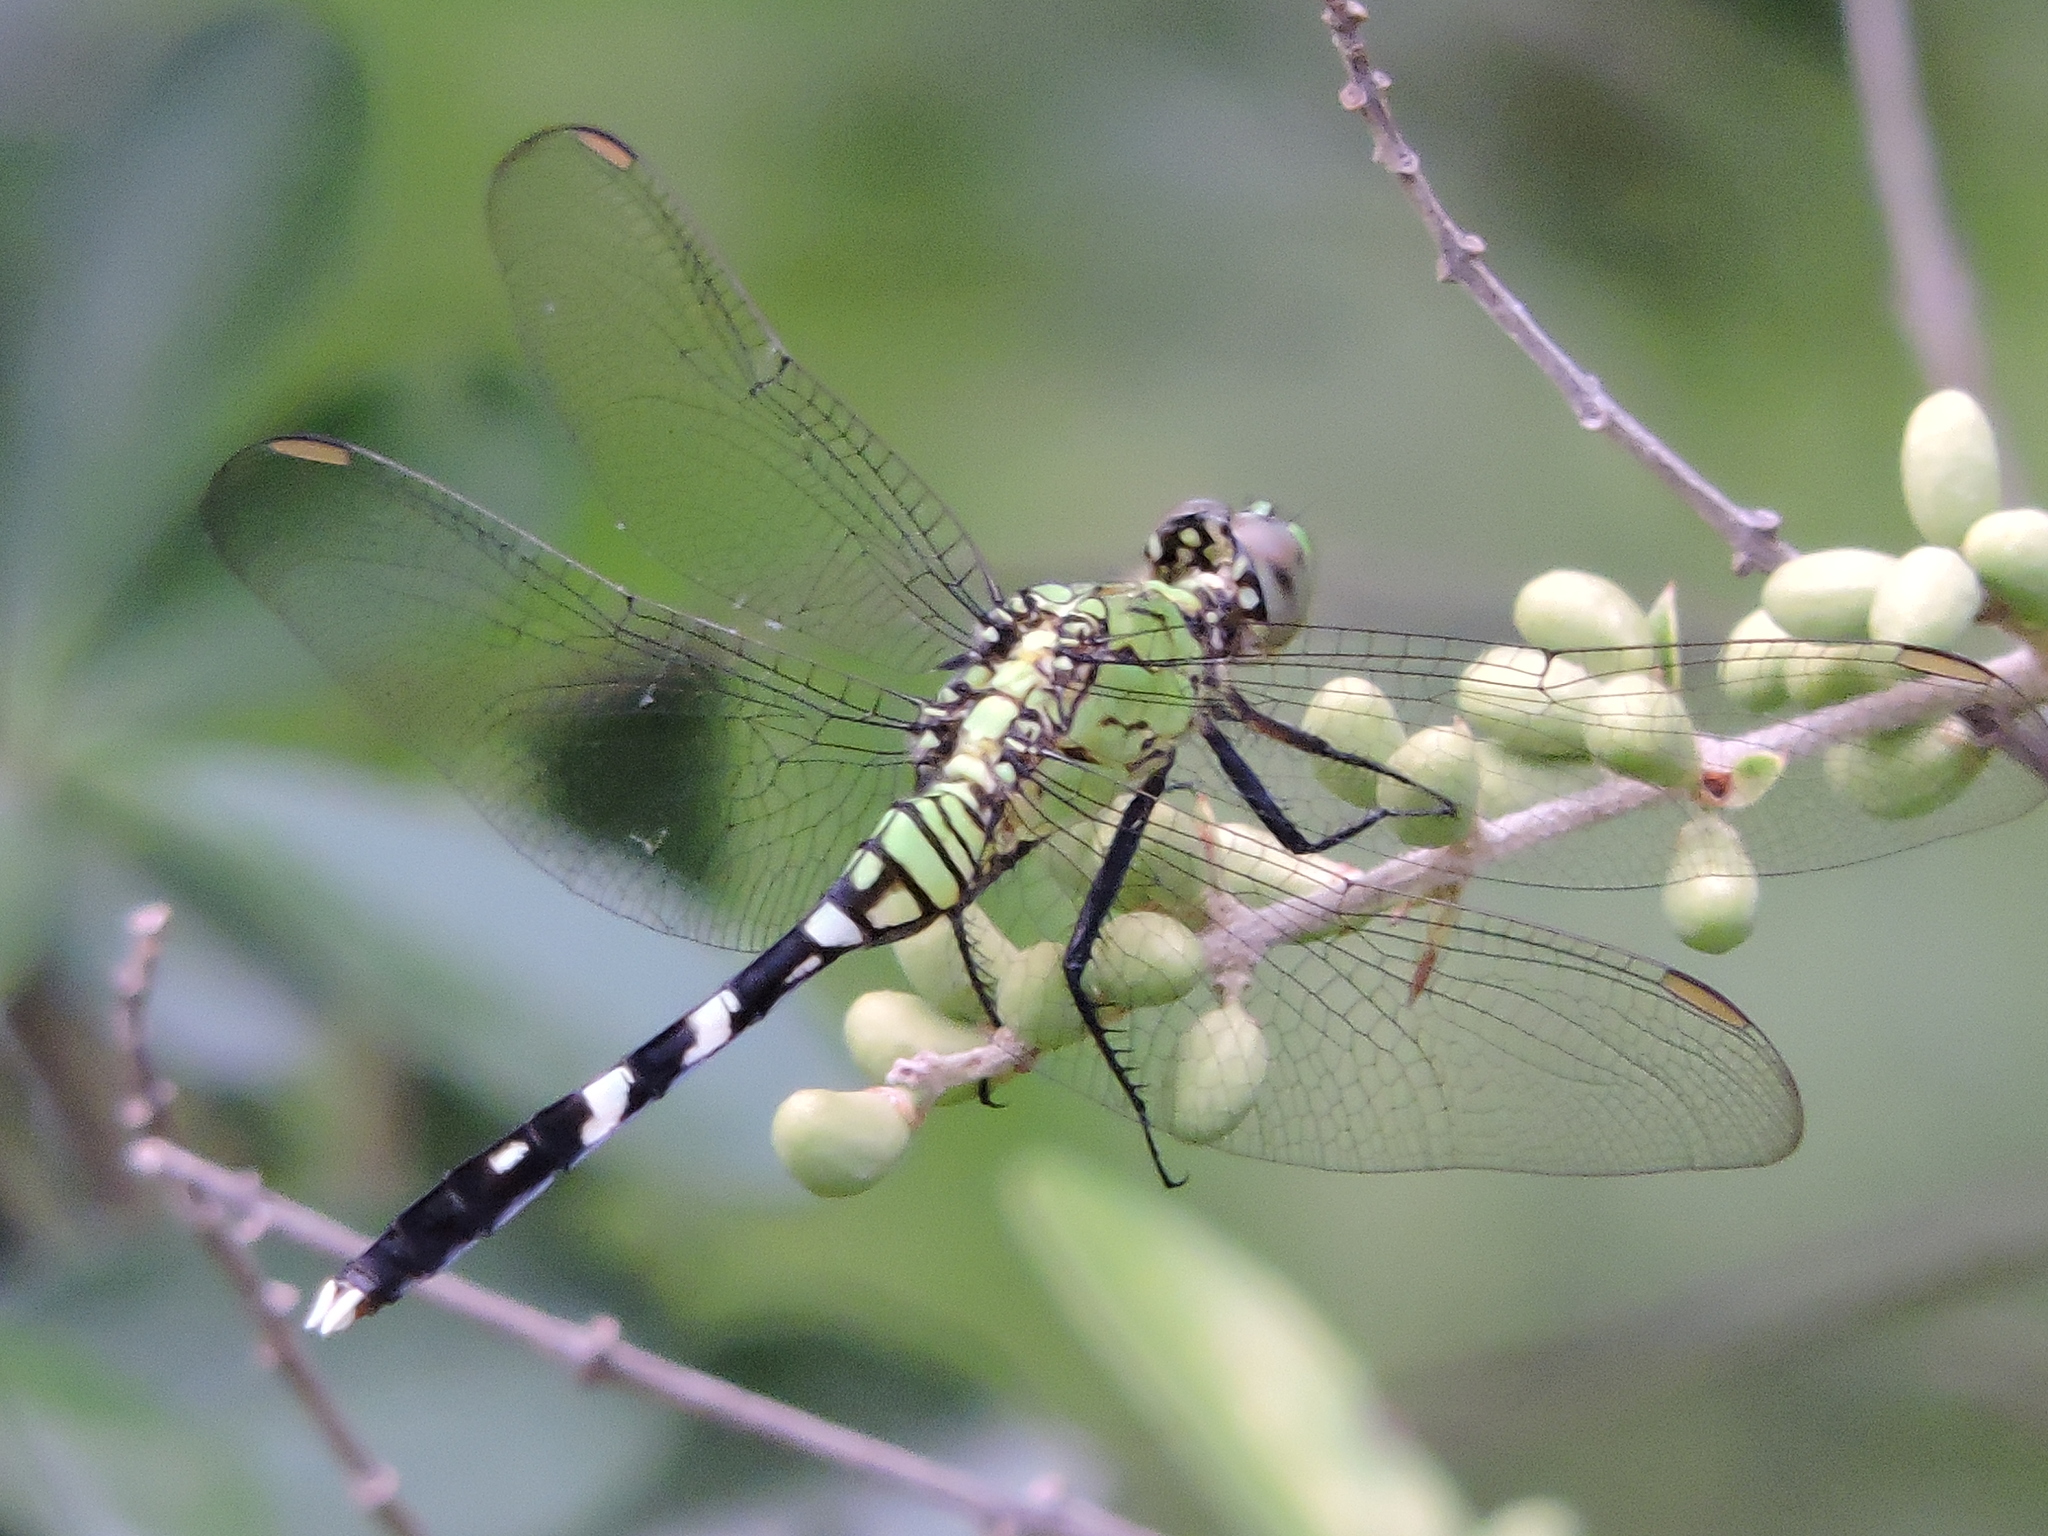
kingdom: Animalia
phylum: Arthropoda
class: Insecta
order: Odonata
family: Libellulidae
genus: Erythemis
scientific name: Erythemis simplicicollis
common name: Eastern pondhawk
